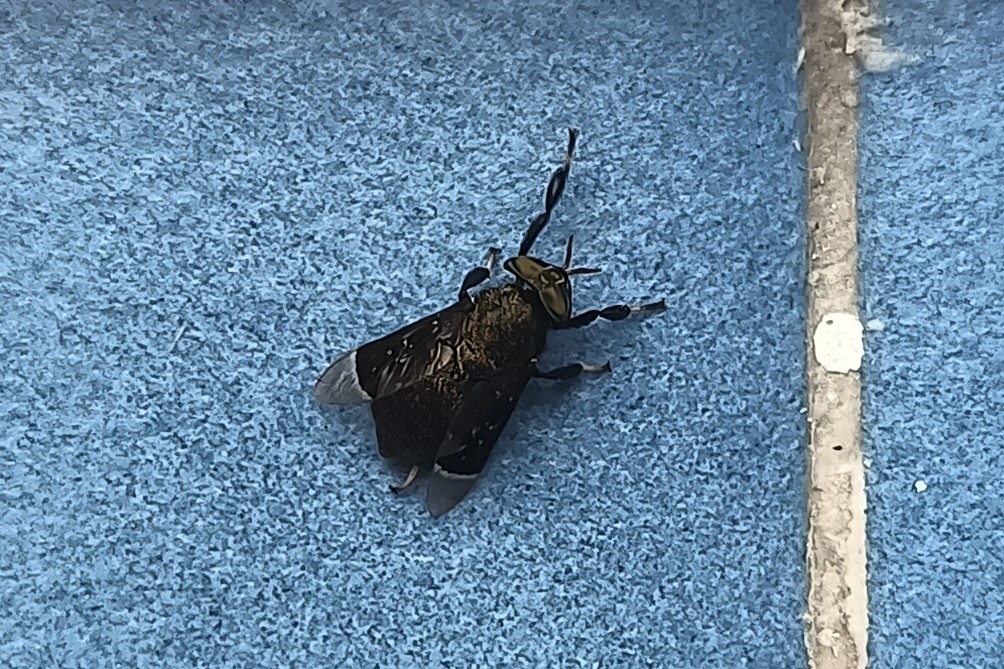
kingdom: Animalia
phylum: Arthropoda
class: Insecta
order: Diptera
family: Tabanidae
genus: Lepiselaga
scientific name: Lepiselaga crassipes
